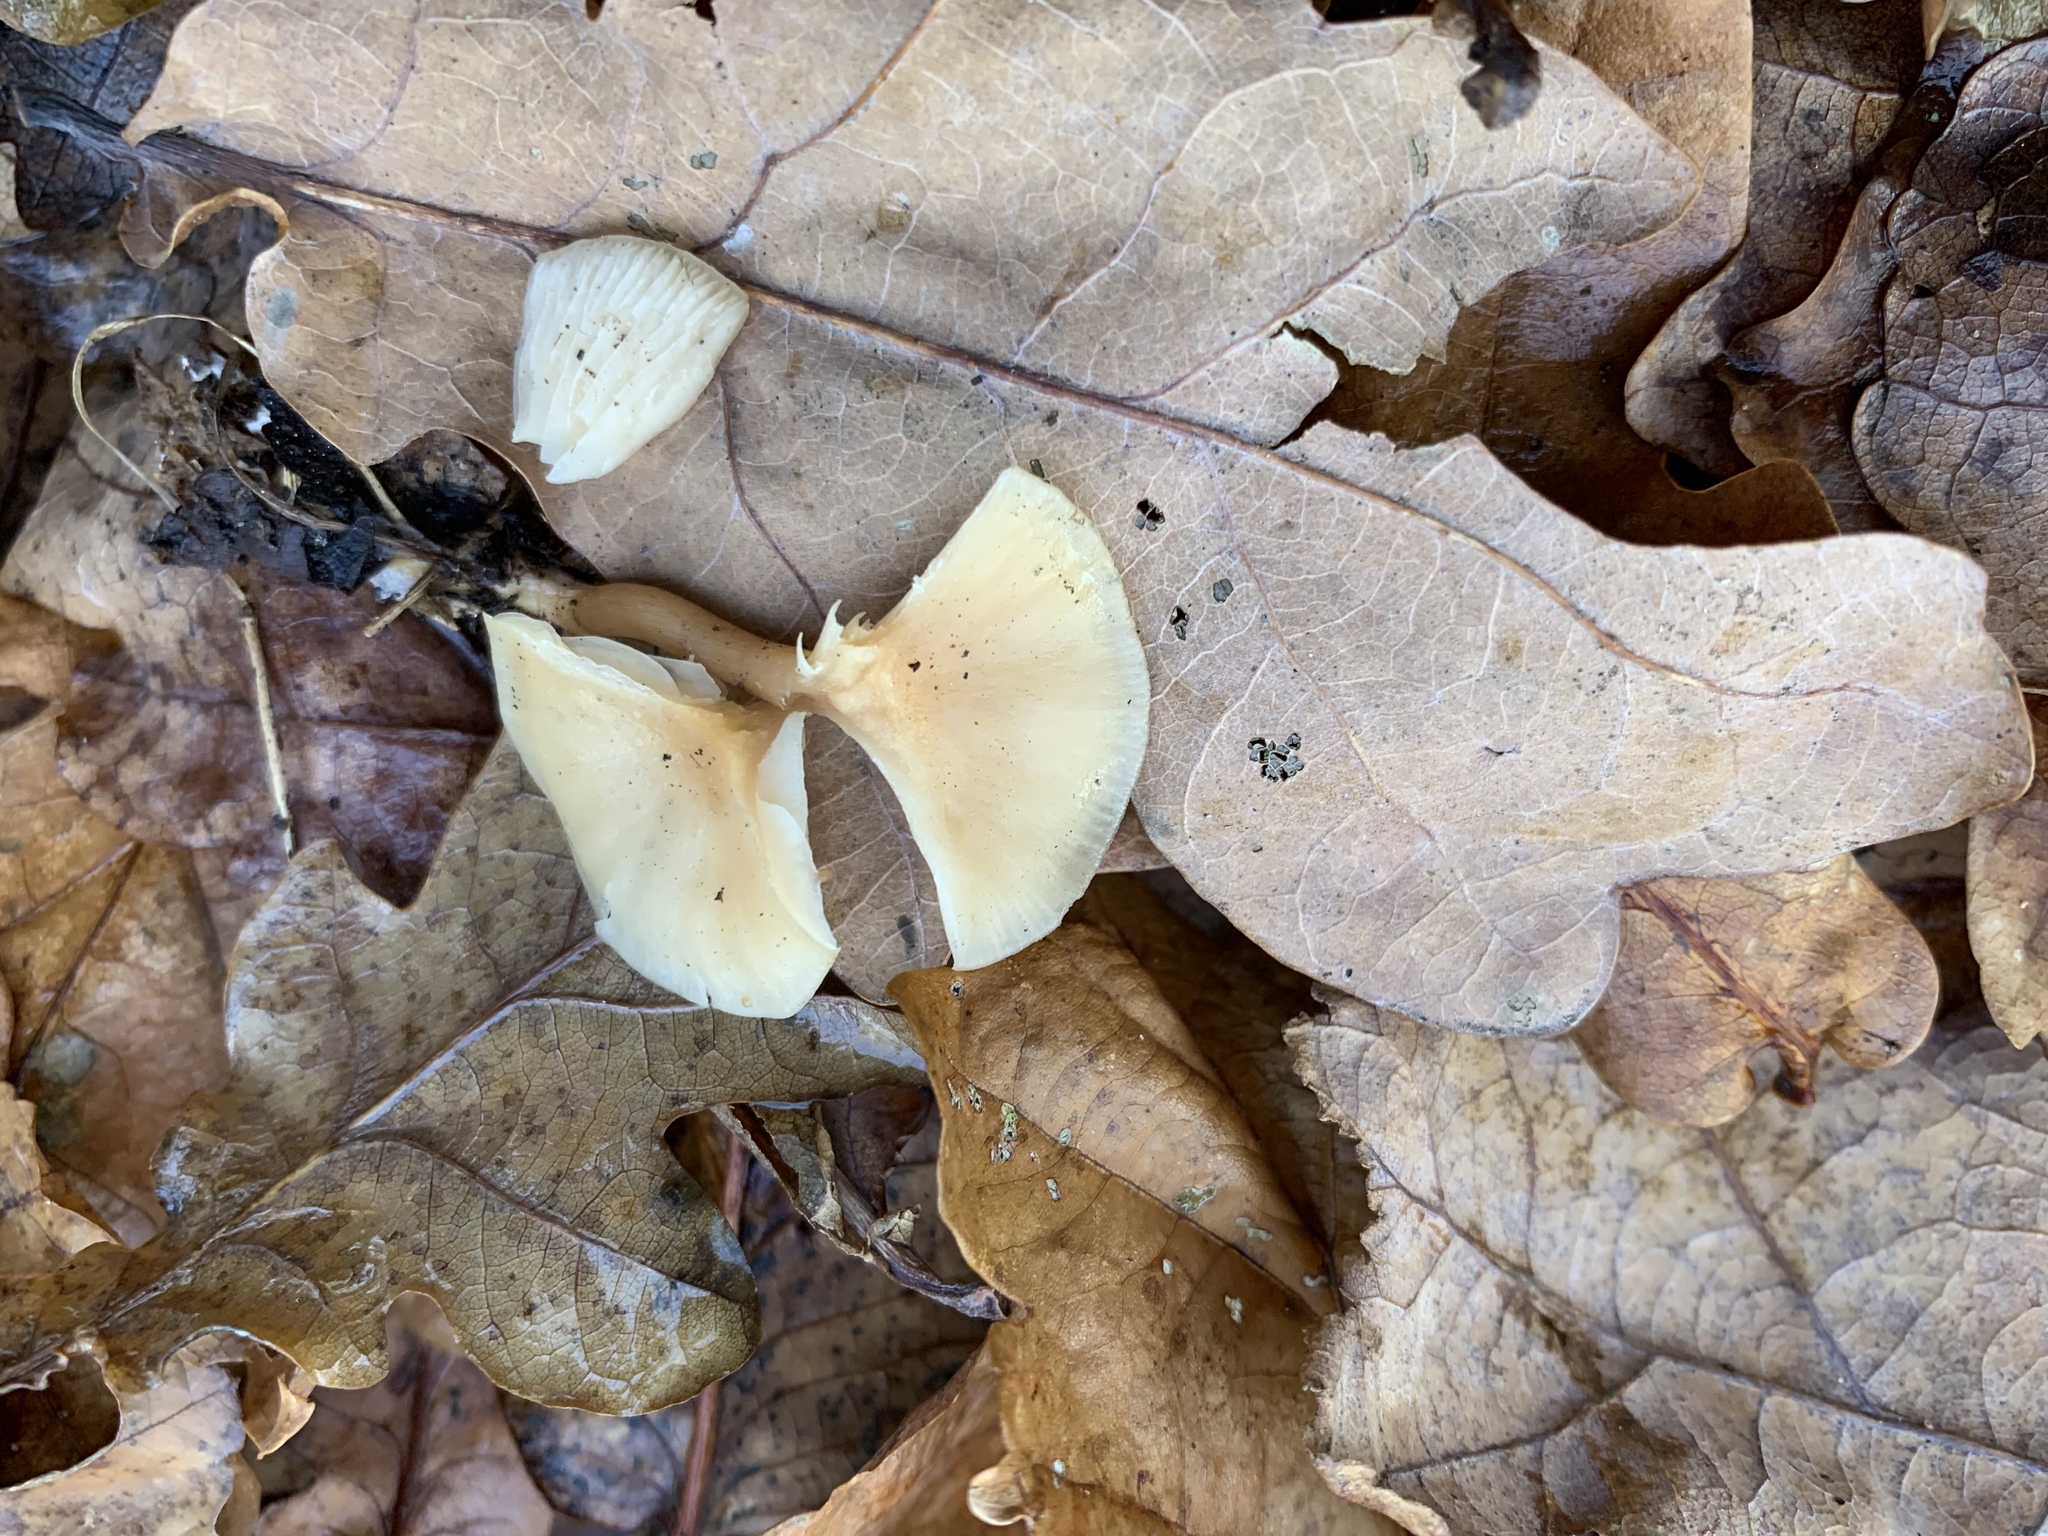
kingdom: Fungi
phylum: Basidiomycota
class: Agaricomycetes
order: Agaricales
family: Omphalotaceae
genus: Rhodocollybia
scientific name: Rhodocollybia butyracea
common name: Butter cap
